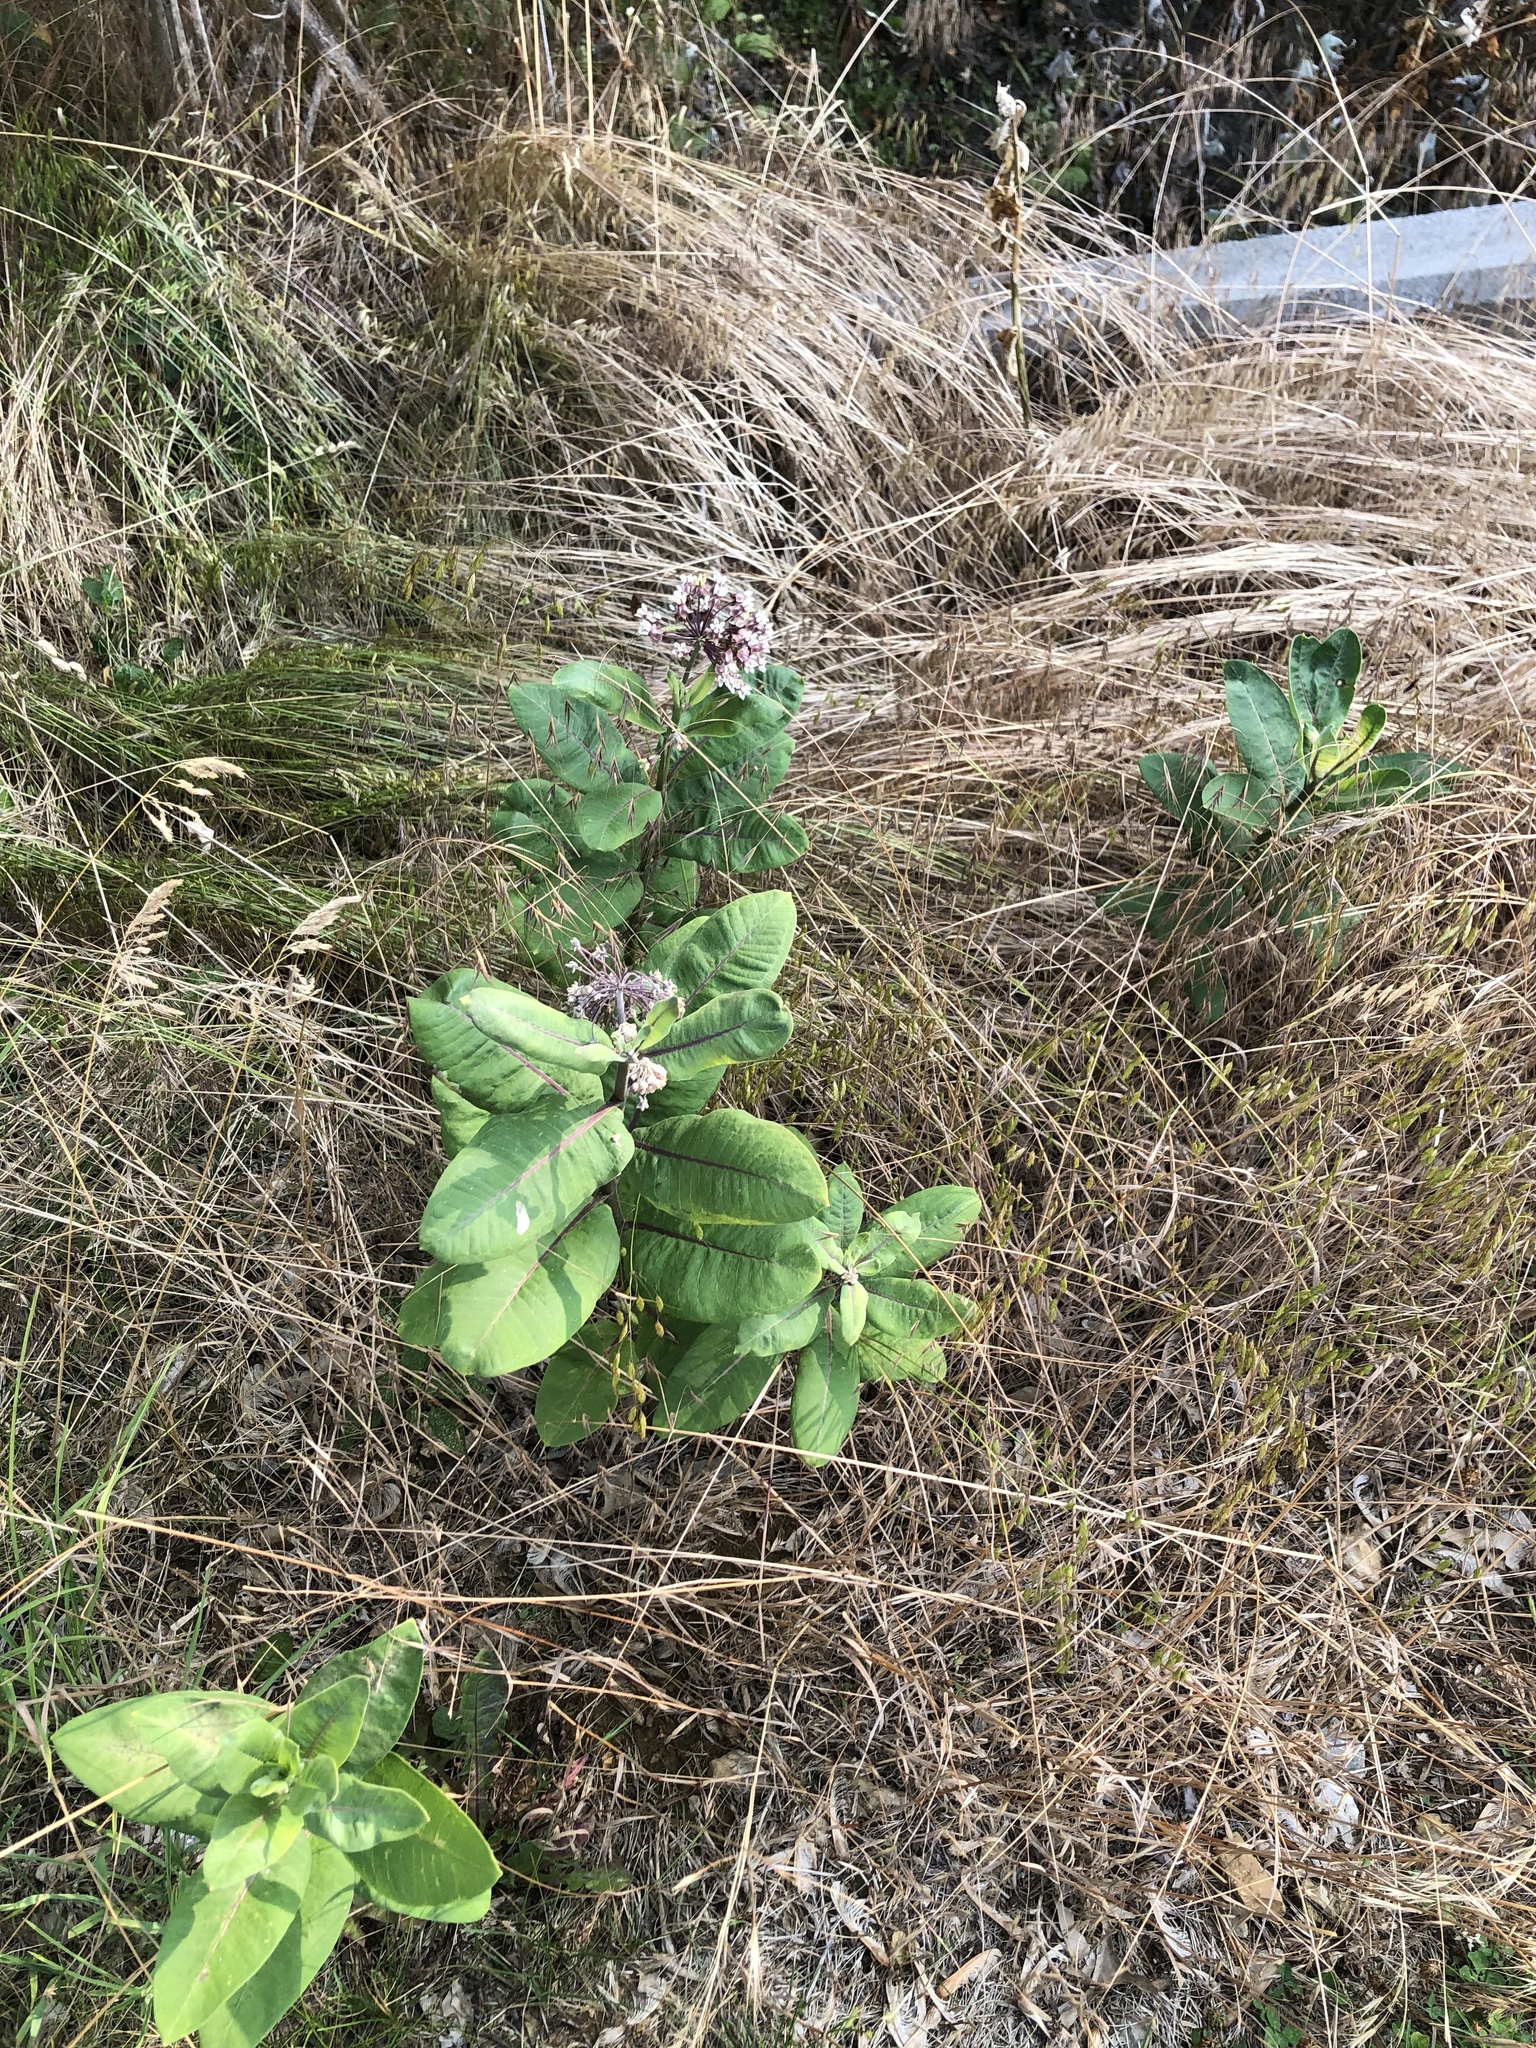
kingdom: Plantae
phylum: Tracheophyta
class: Magnoliopsida
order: Gentianales
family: Apocynaceae
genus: Asclepias
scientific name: Asclepias syriaca
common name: Common milkweed
